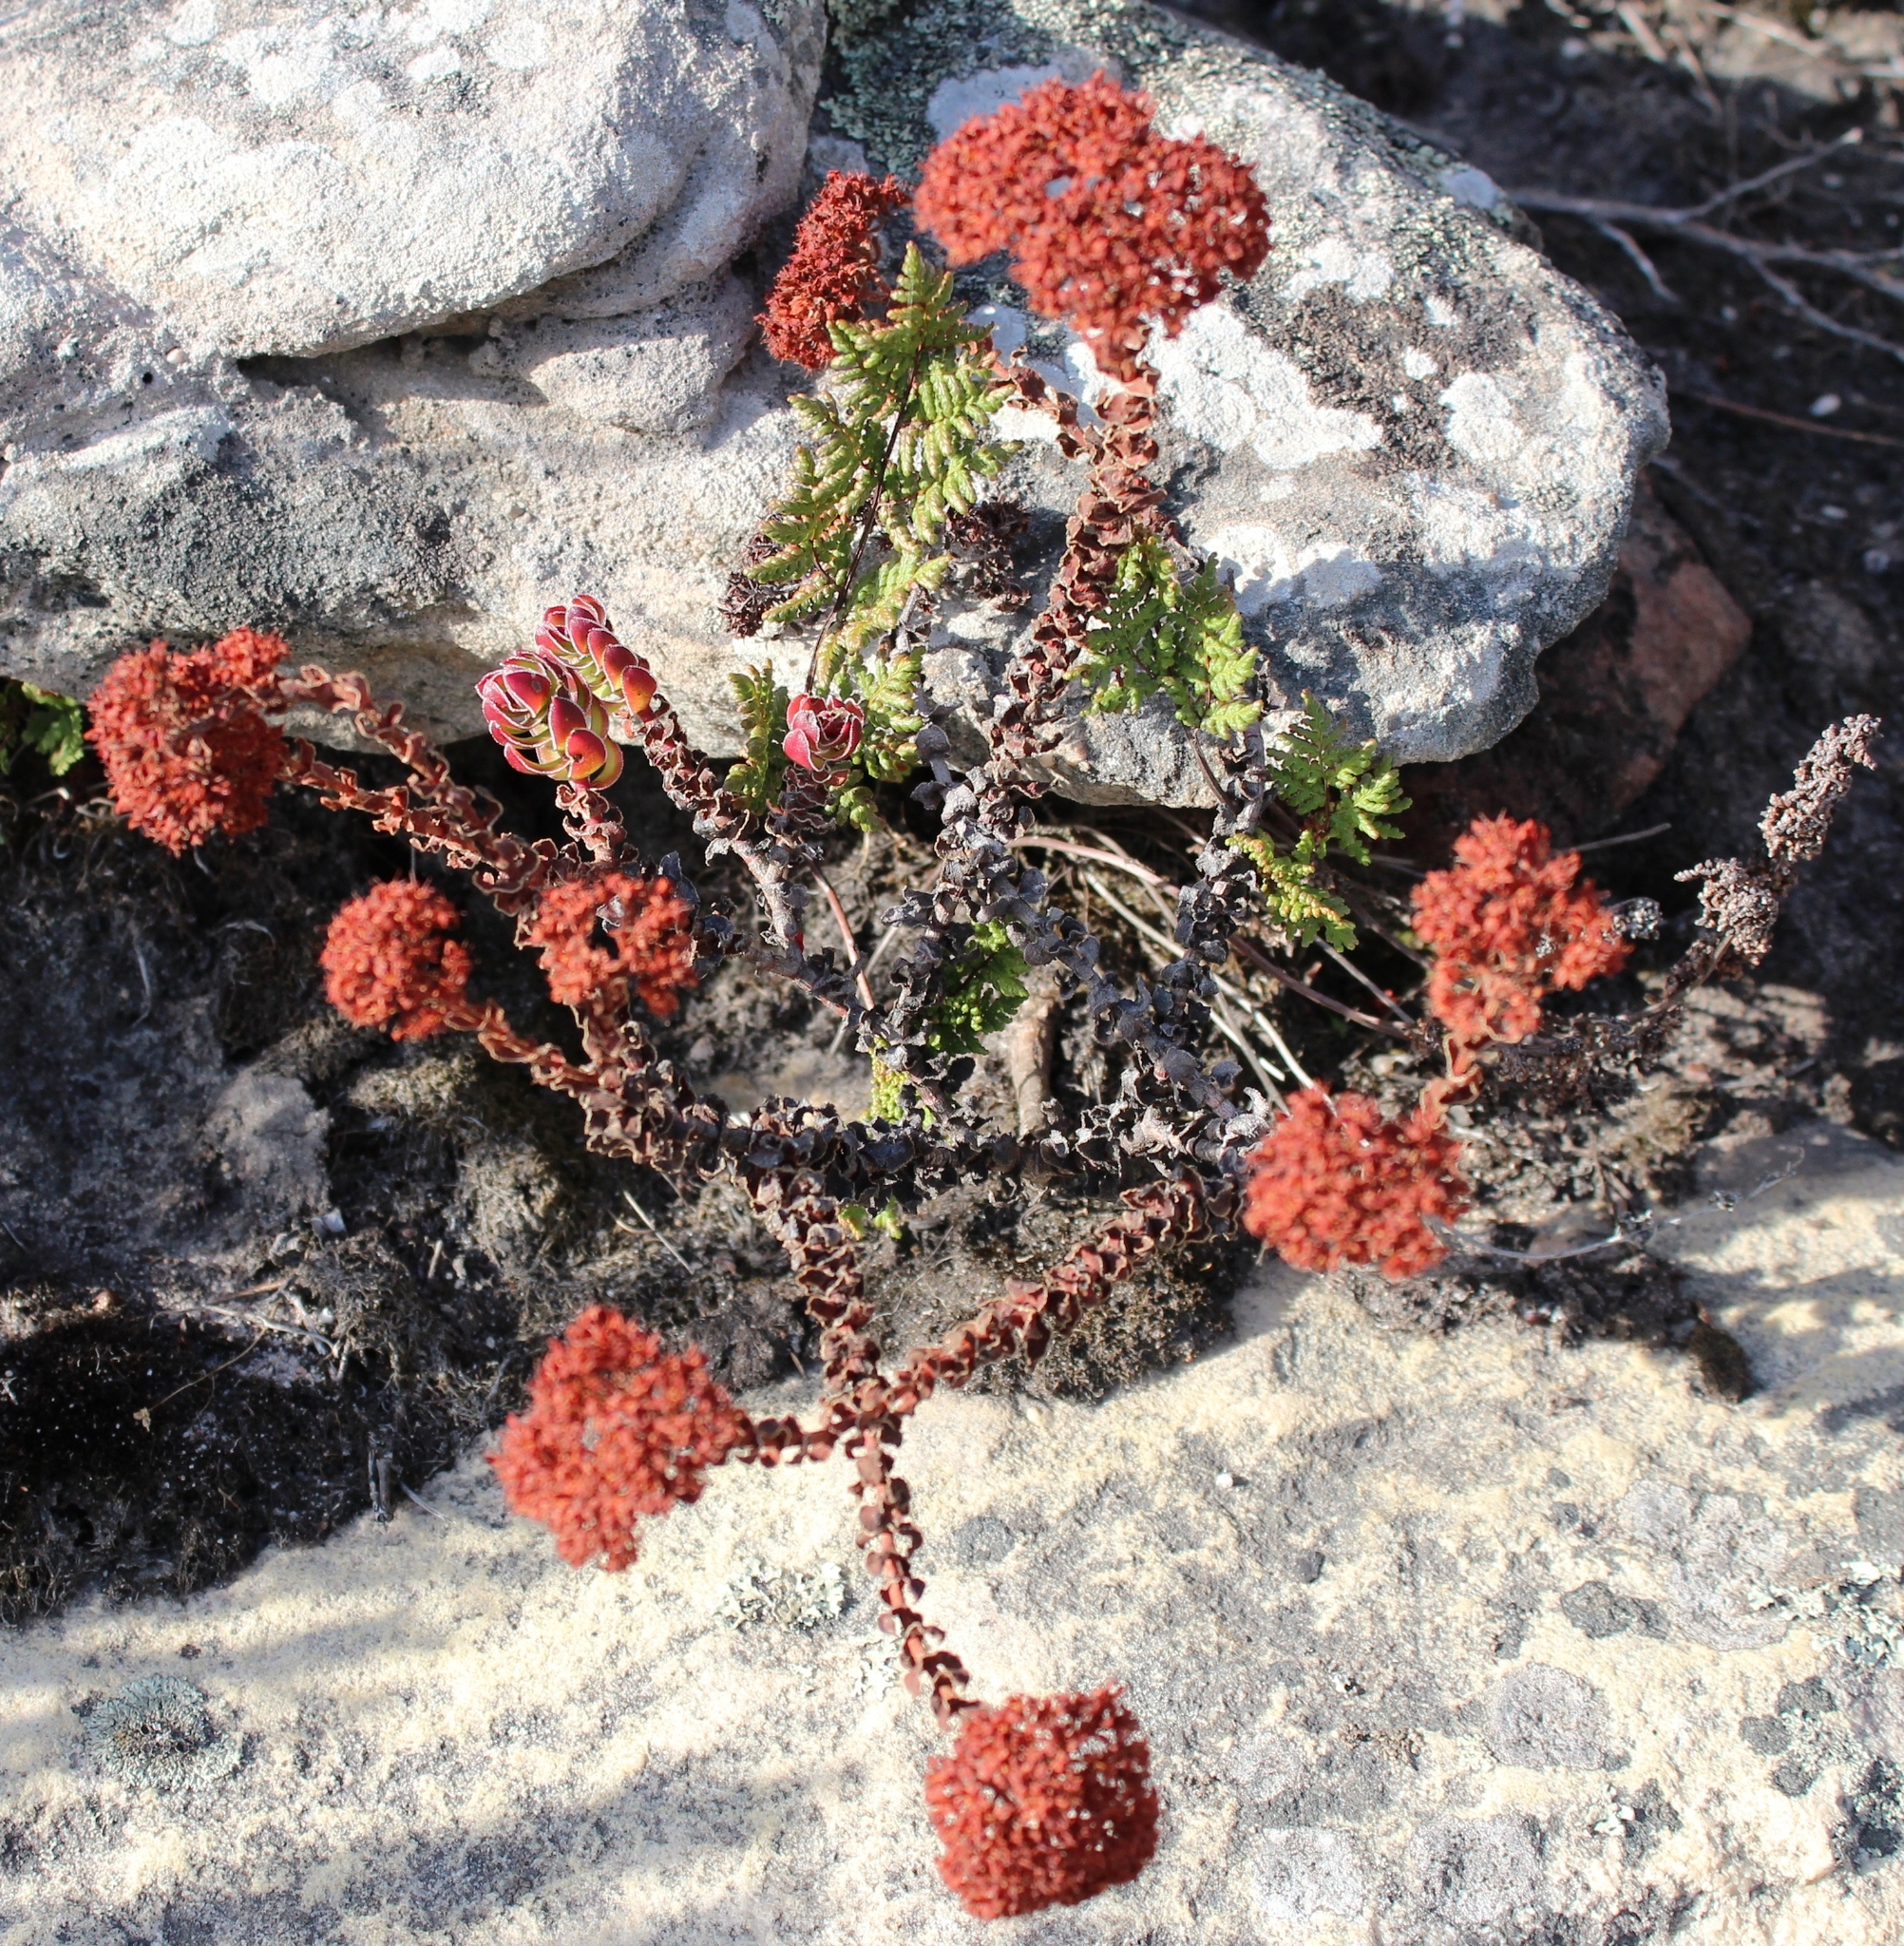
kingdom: Plantae
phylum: Tracheophyta
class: Magnoliopsida
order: Saxifragales
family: Crassulaceae
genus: Crassula
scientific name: Crassula undulata
